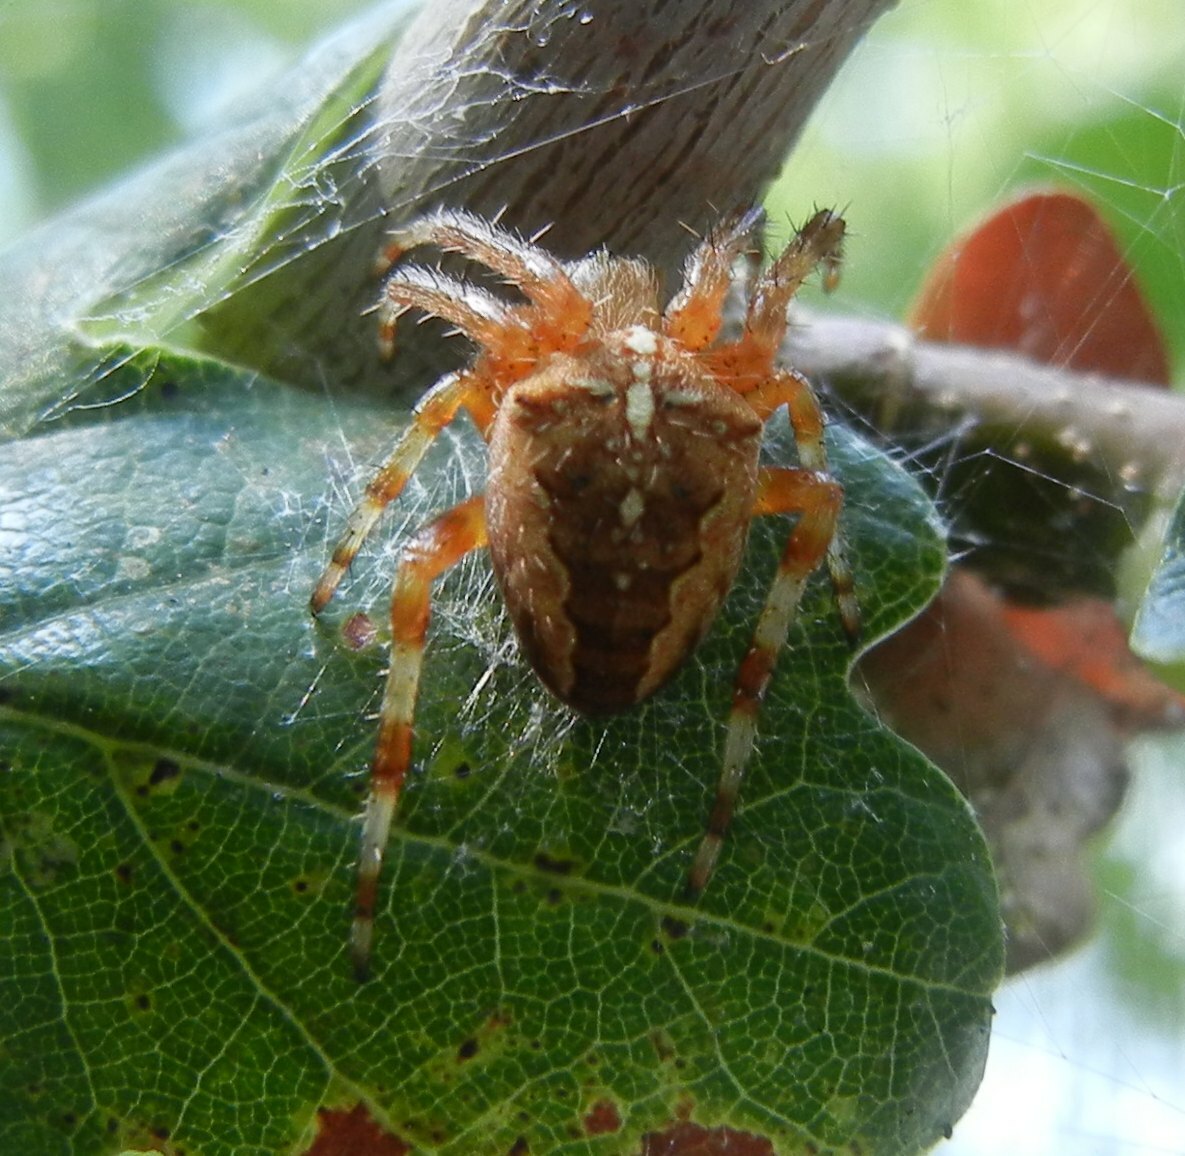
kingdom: Animalia
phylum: Arthropoda
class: Arachnida
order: Araneae
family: Araneidae
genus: Araneus
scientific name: Araneus diadematus
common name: Cross orbweaver
